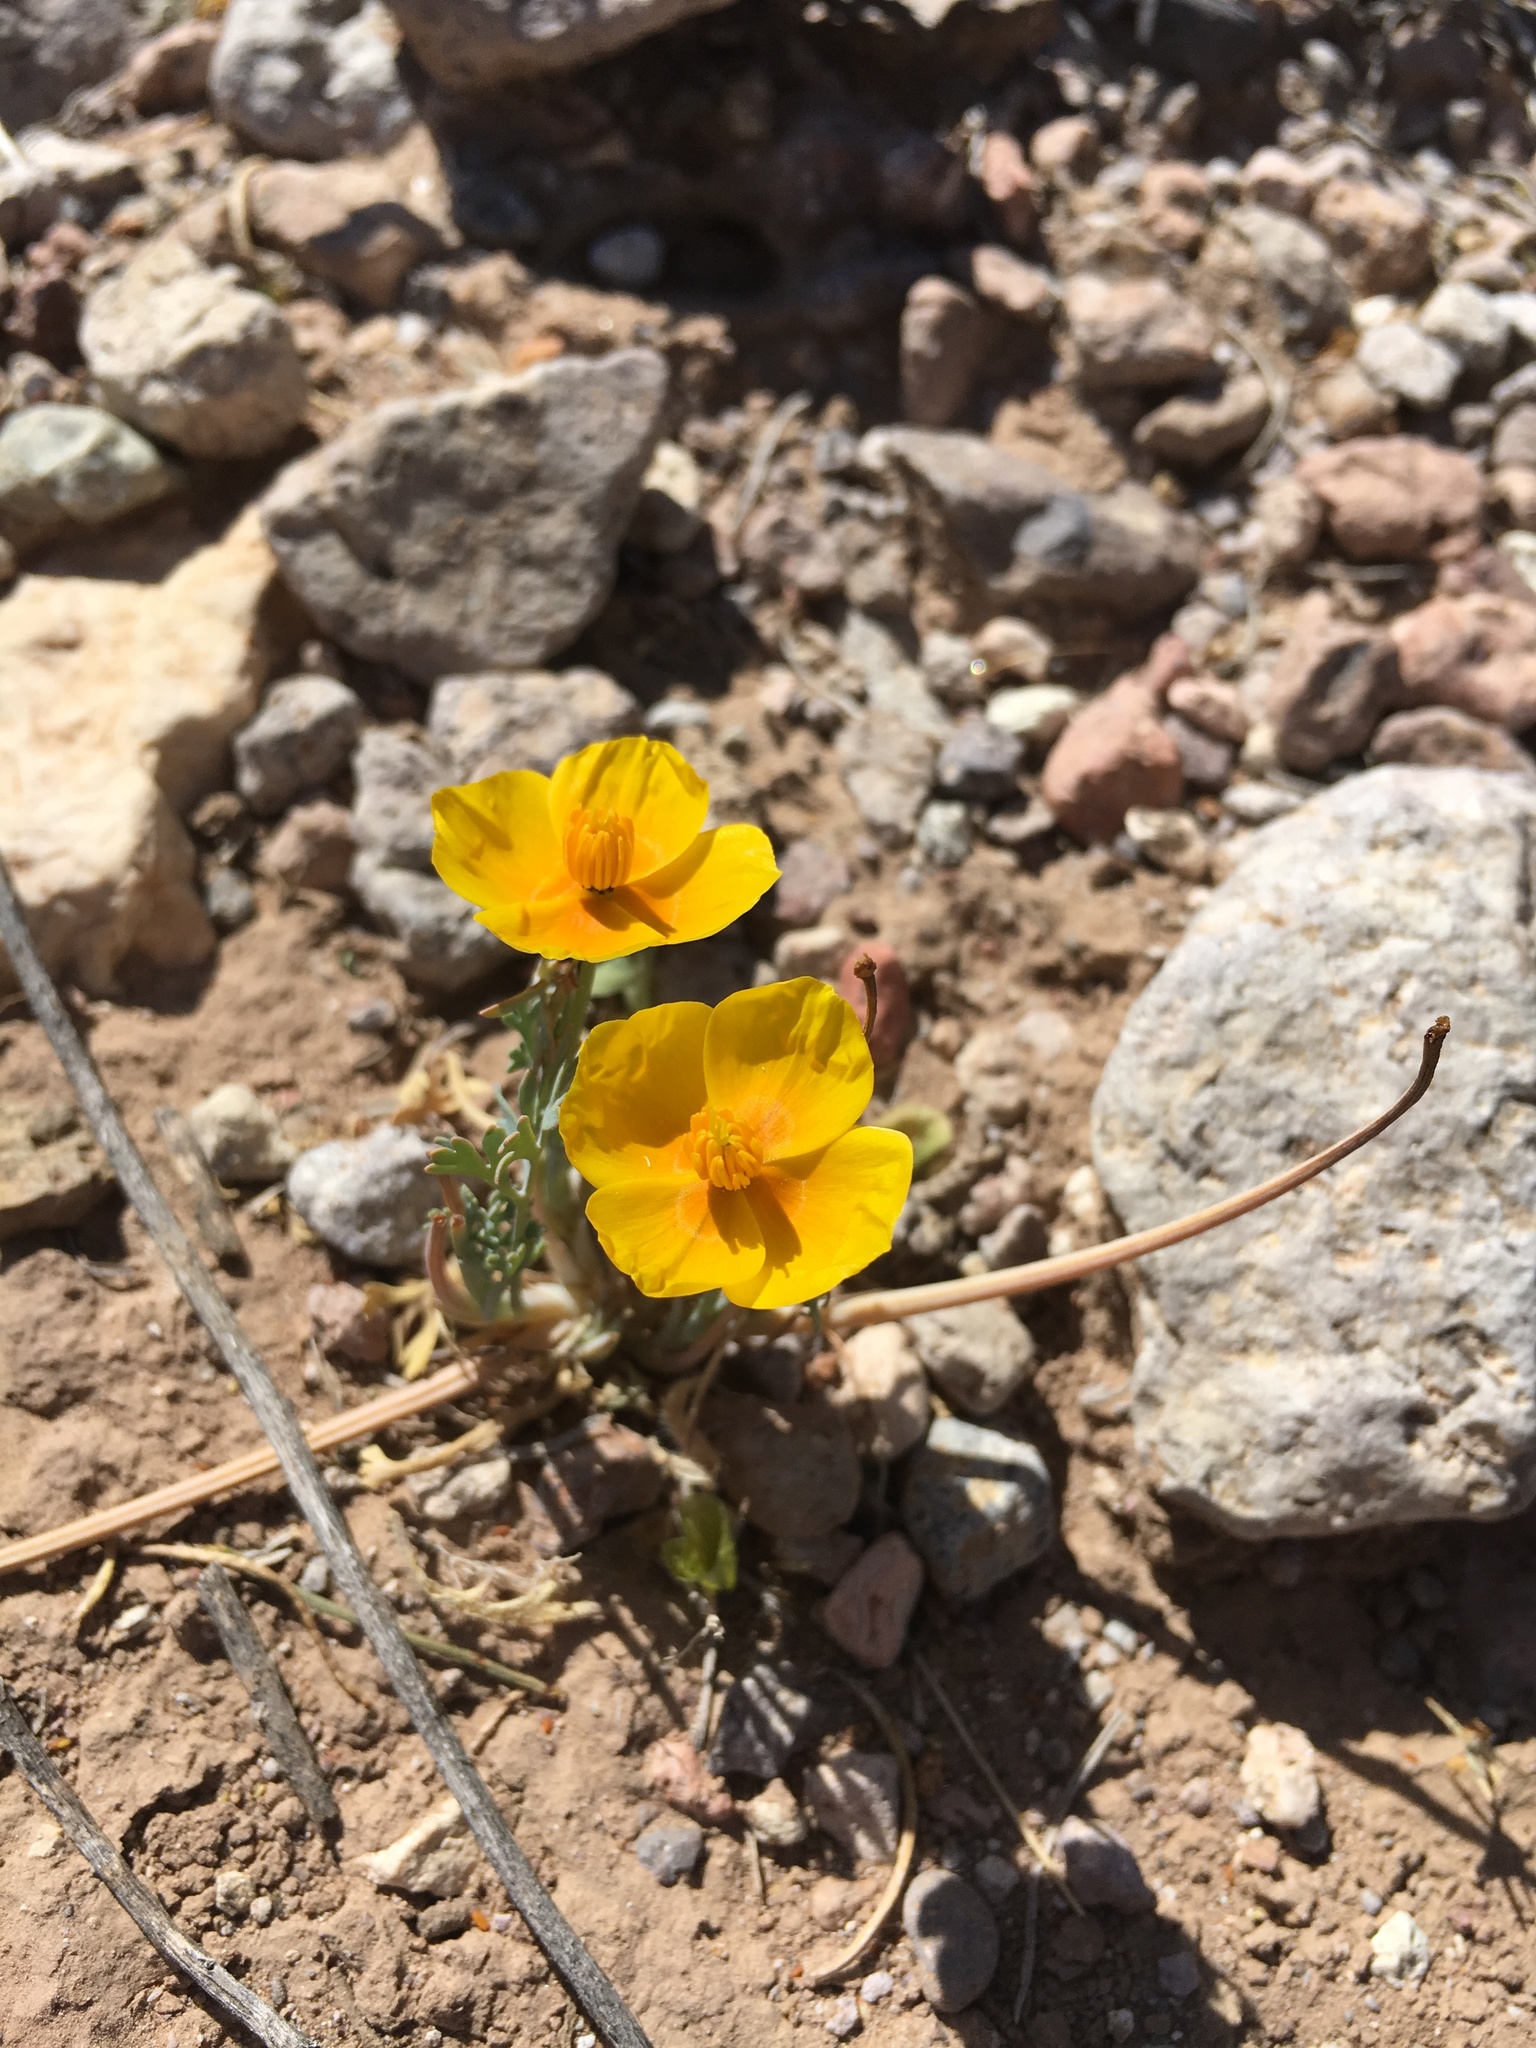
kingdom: Plantae
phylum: Tracheophyta
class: Magnoliopsida
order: Ranunculales
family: Papaveraceae
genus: Eschscholzia
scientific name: Eschscholzia californica
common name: California poppy
